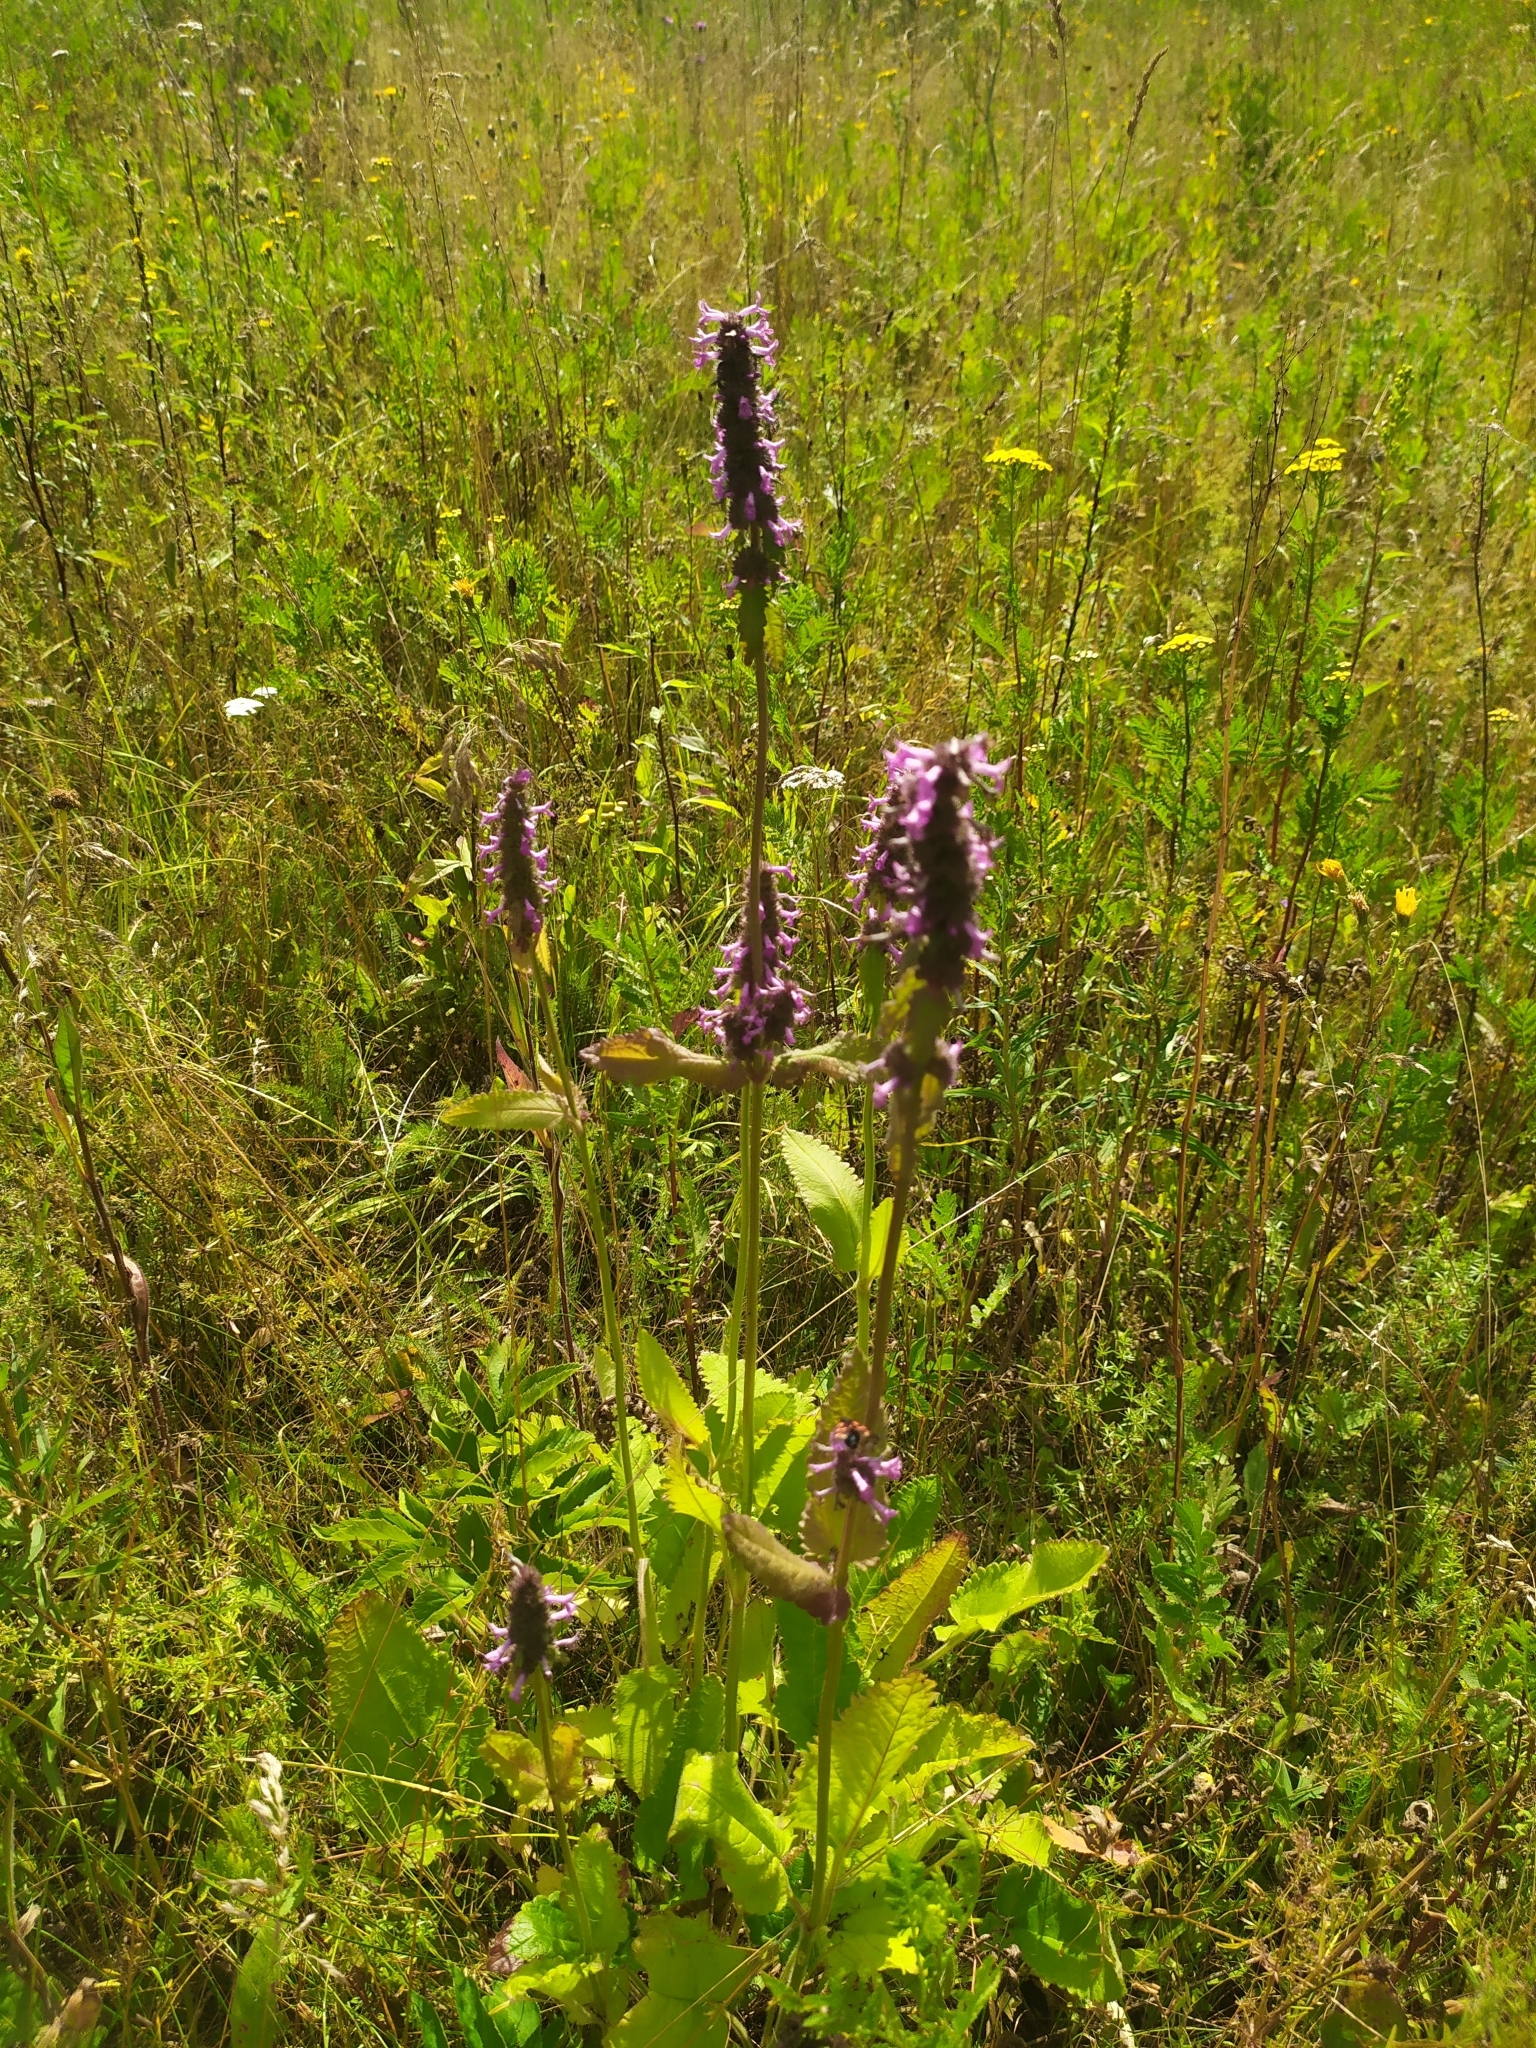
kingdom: Plantae
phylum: Tracheophyta
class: Magnoliopsida
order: Lamiales
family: Lamiaceae
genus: Betonica
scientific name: Betonica officinalis
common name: Bishop's-wort
